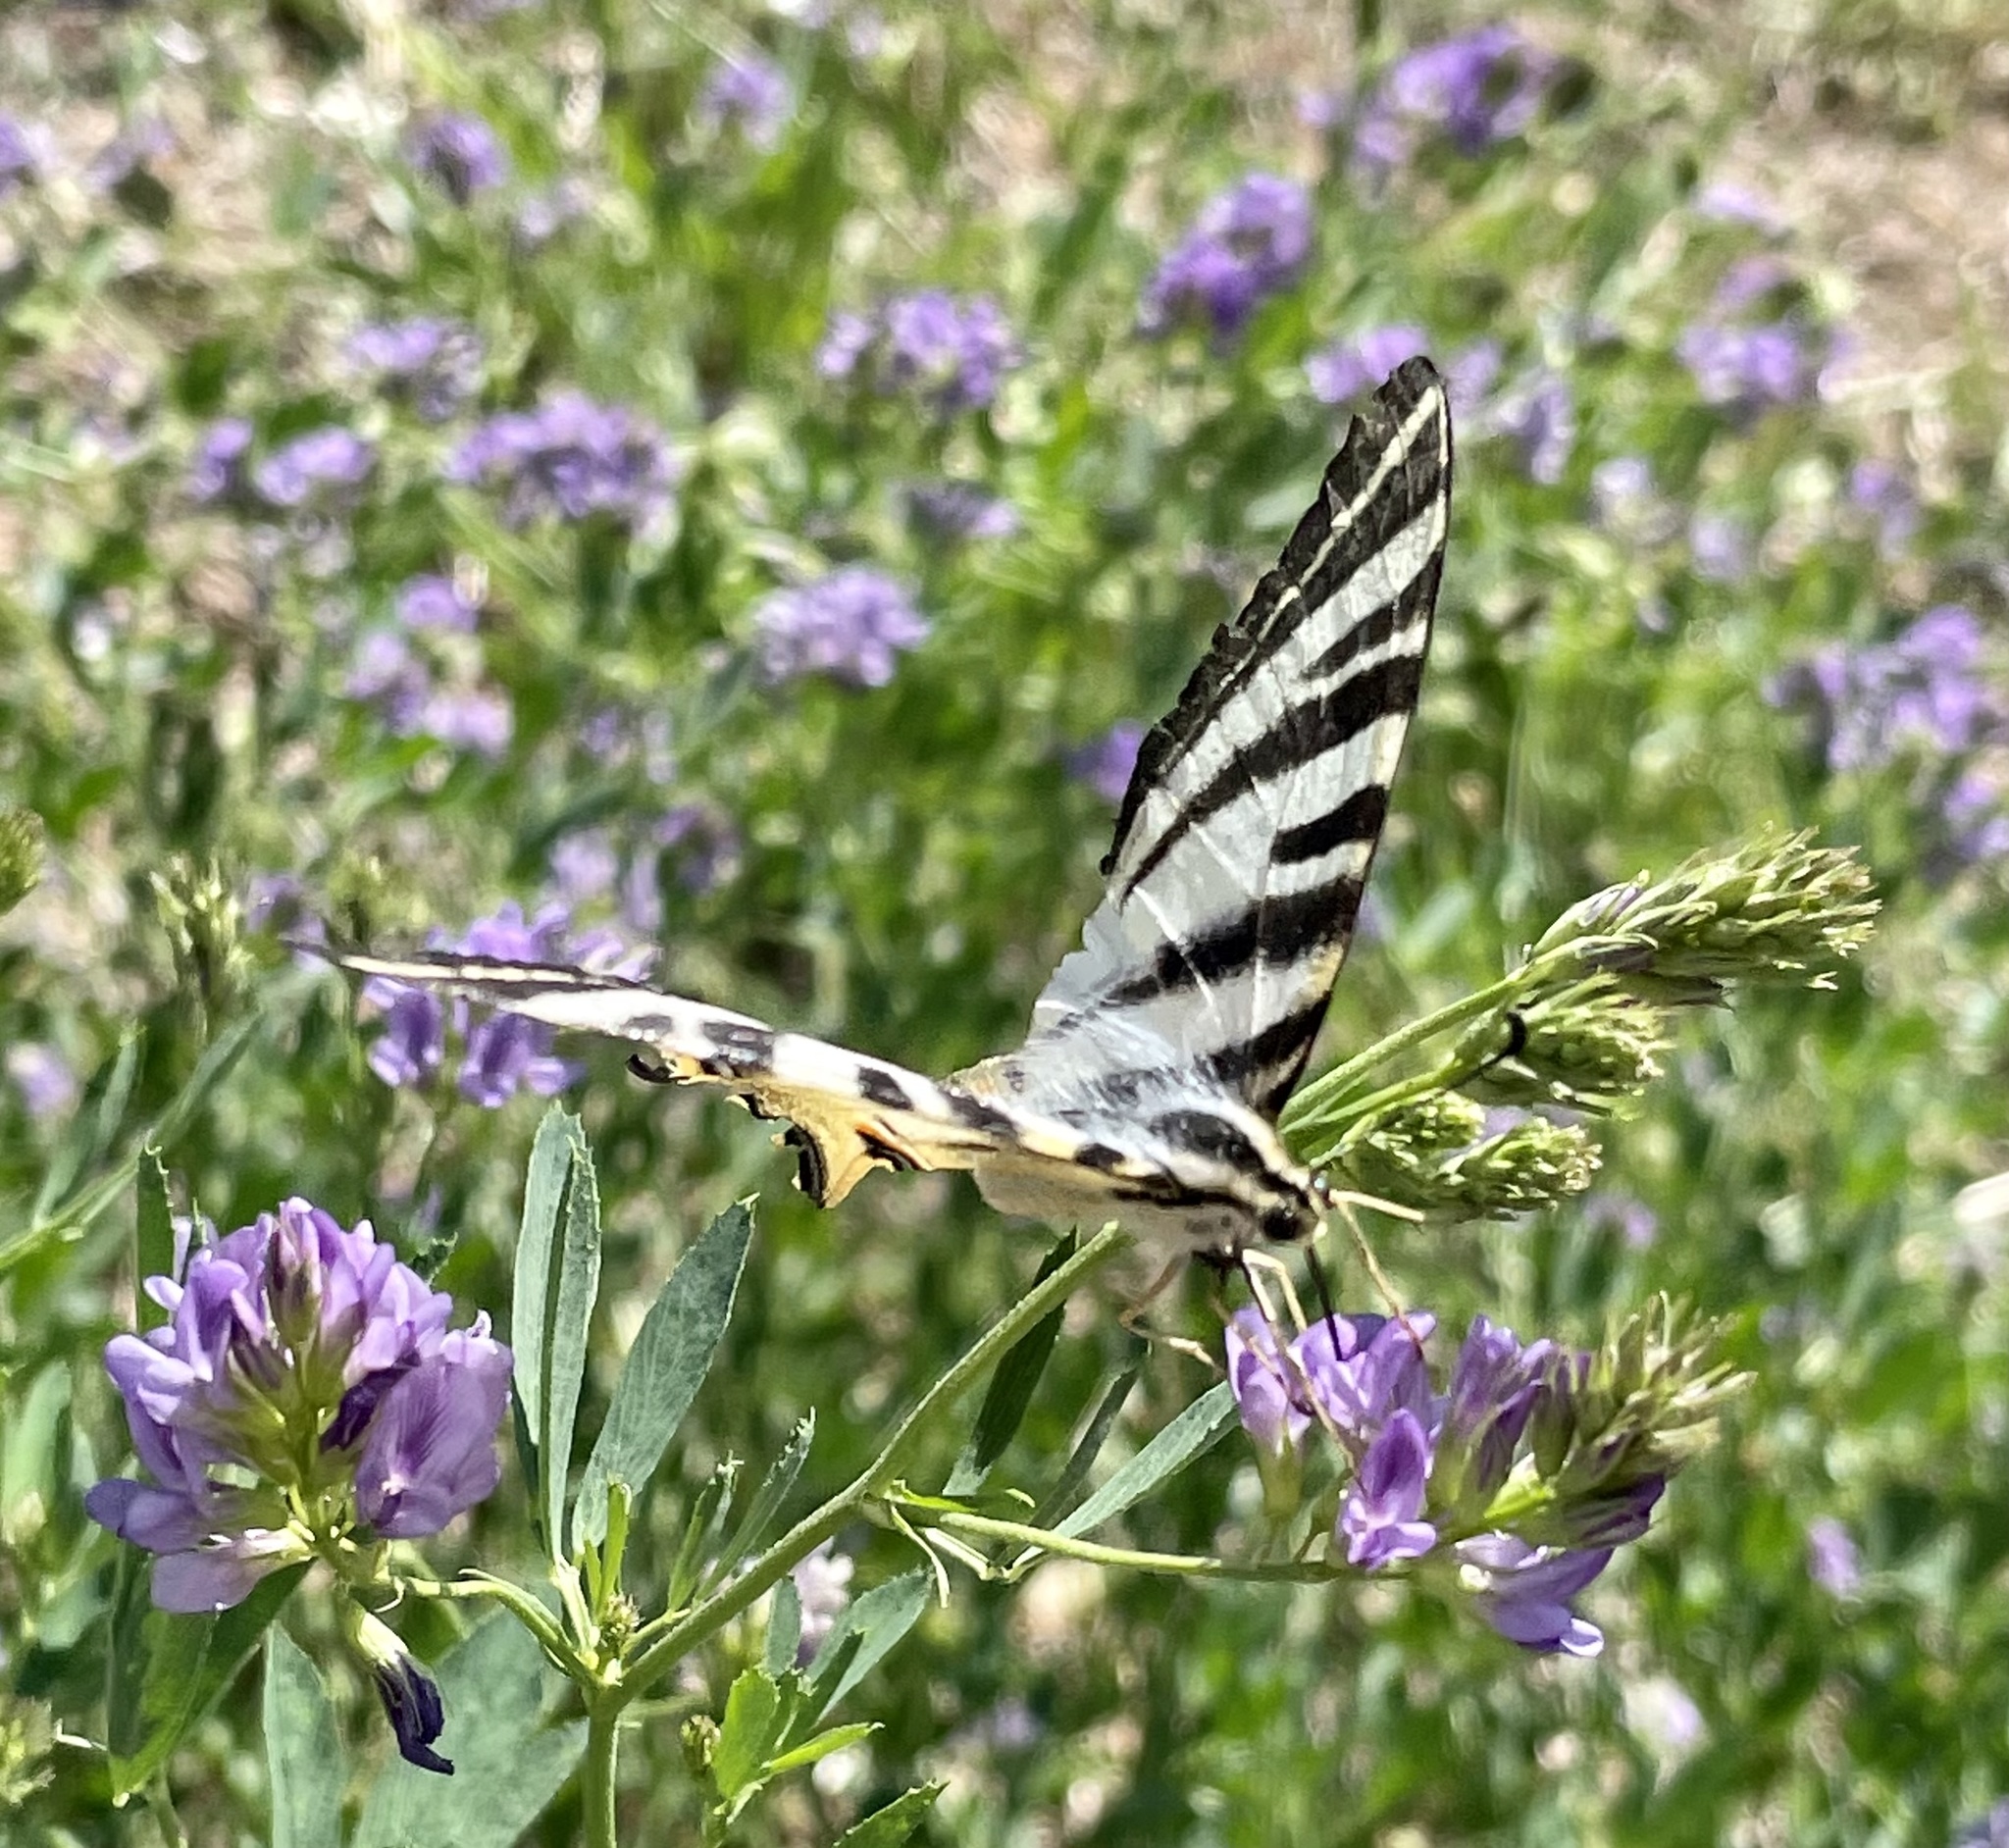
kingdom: Animalia
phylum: Arthropoda
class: Insecta
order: Lepidoptera
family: Papilionidae
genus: Iphiclides
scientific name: Iphiclides feisthamelii
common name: Iberian scarce swallowtail
